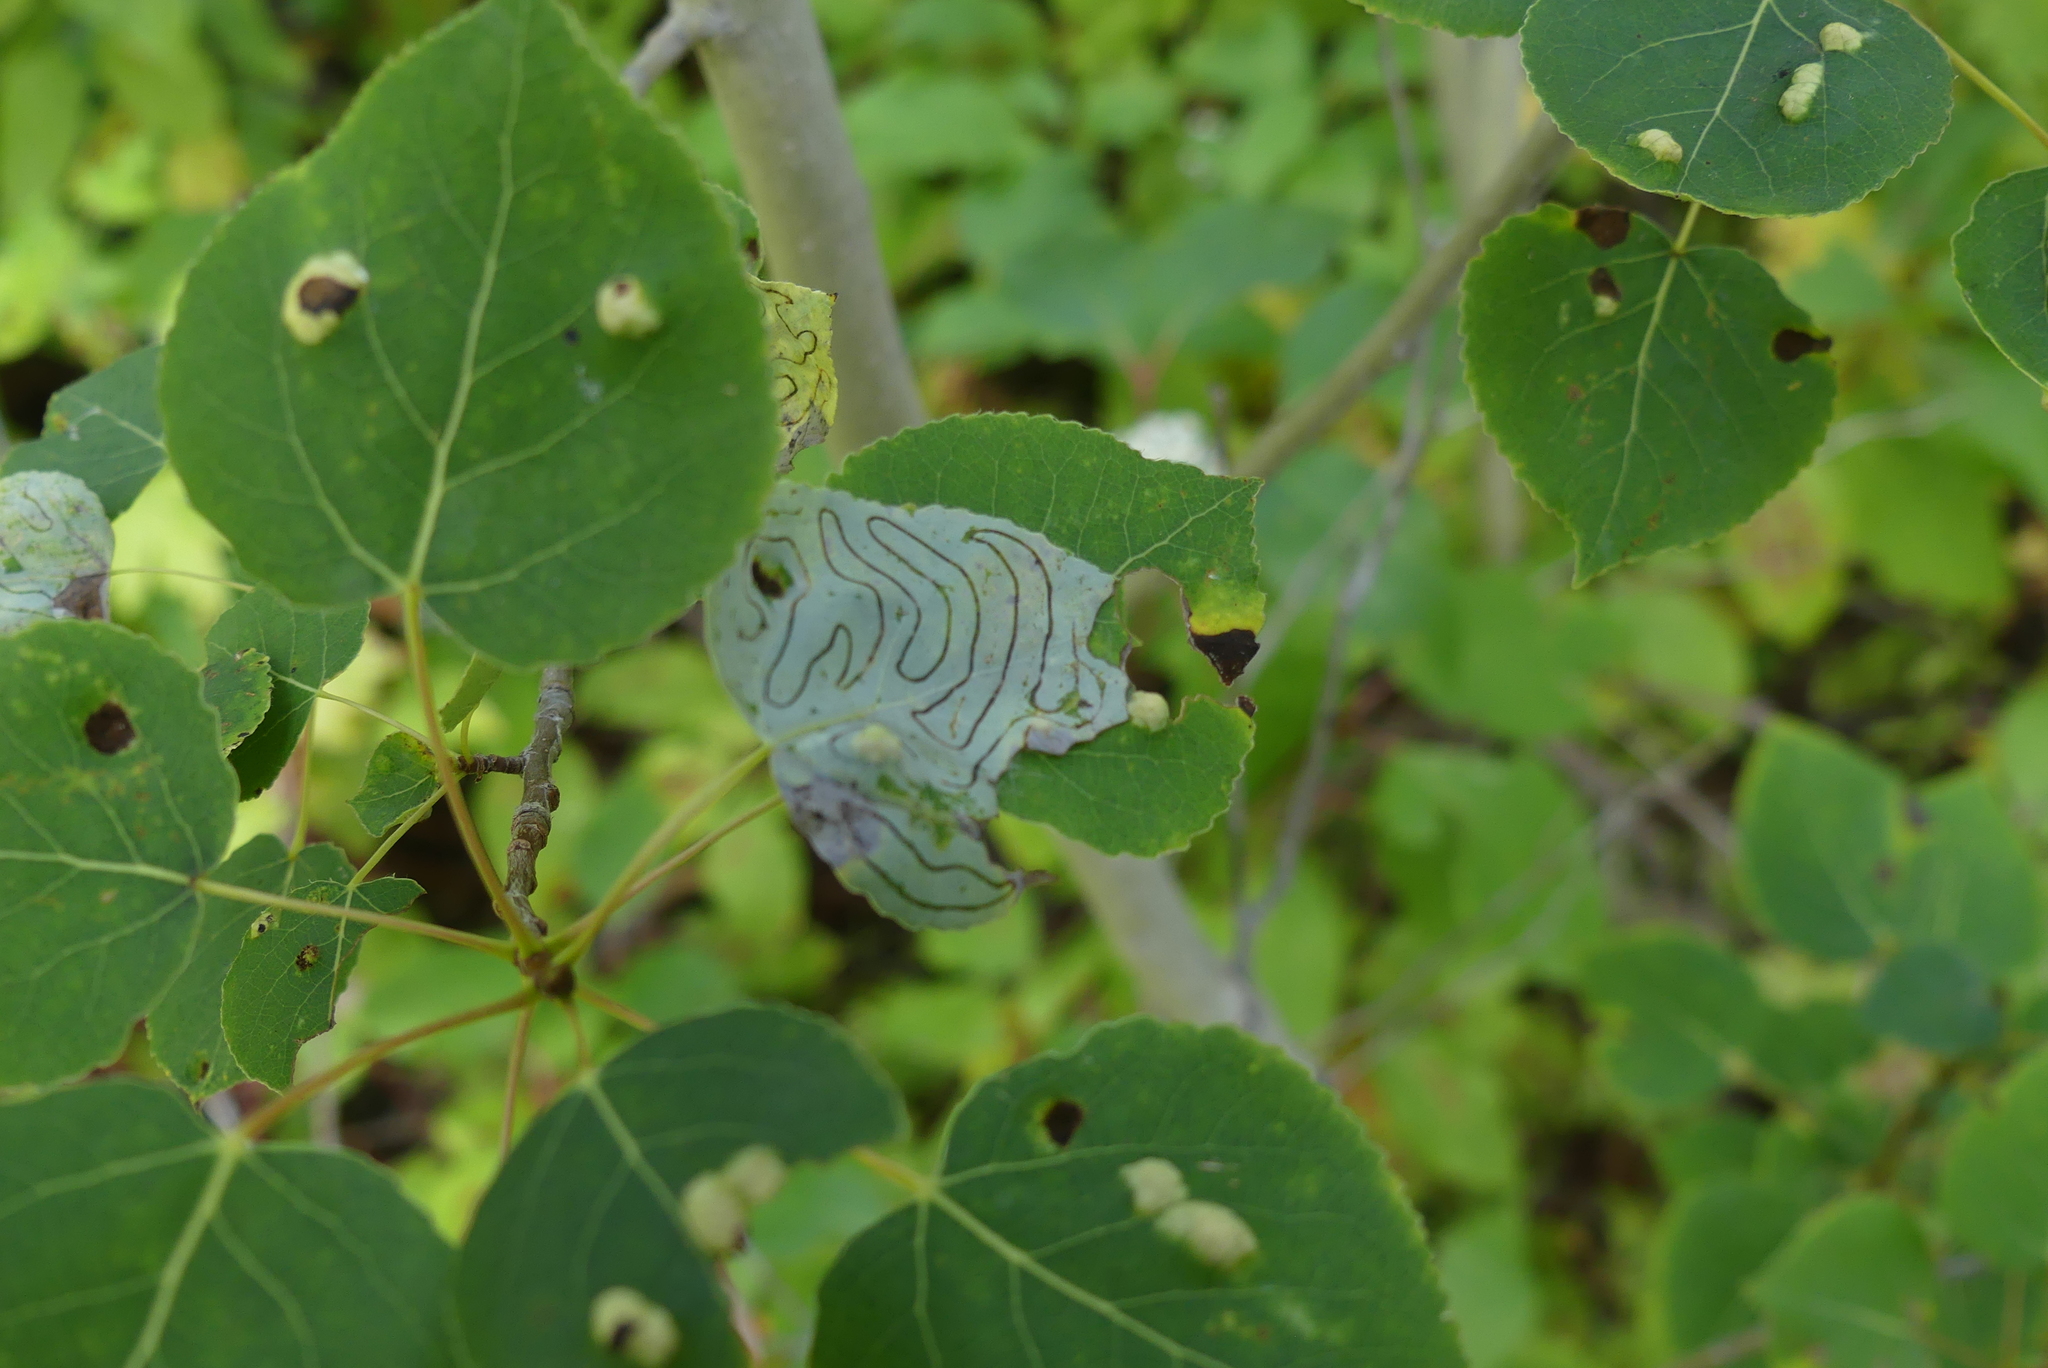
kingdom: Animalia
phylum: Arthropoda
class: Insecta
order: Lepidoptera
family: Gracillariidae
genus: Phyllocnistis
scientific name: Phyllocnistis populiella
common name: Aspen serpentine leafminer moth
